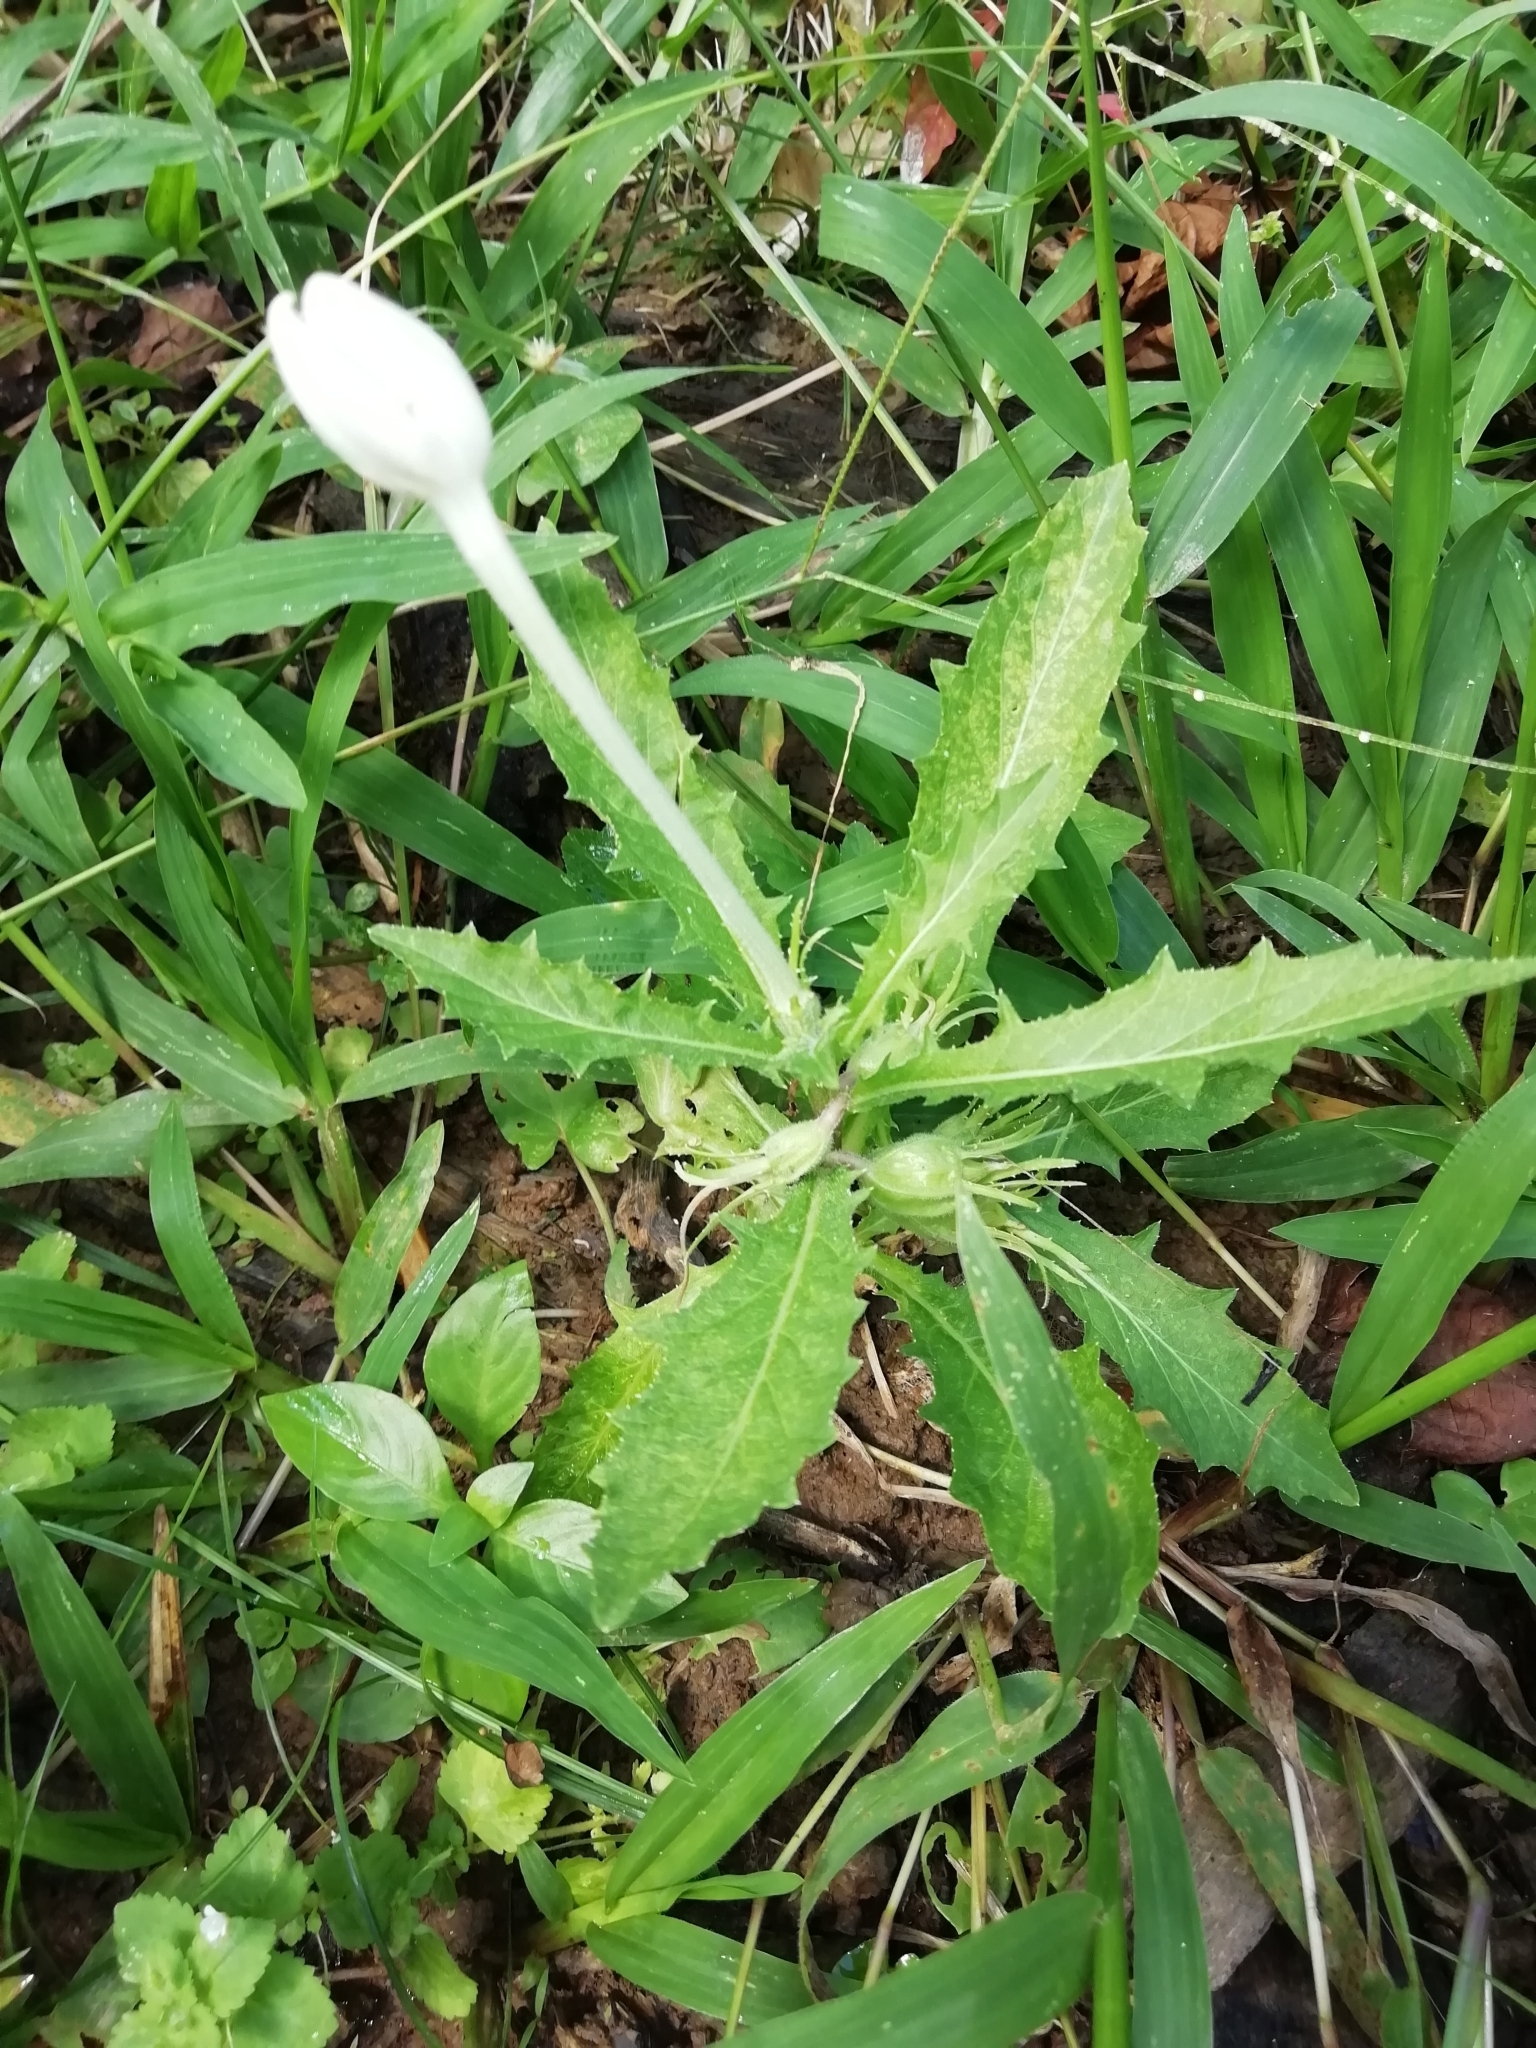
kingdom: Plantae
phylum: Tracheophyta
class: Magnoliopsida
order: Asterales
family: Campanulaceae
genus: Hippobroma
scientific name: Hippobroma longiflora
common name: Madamfate
